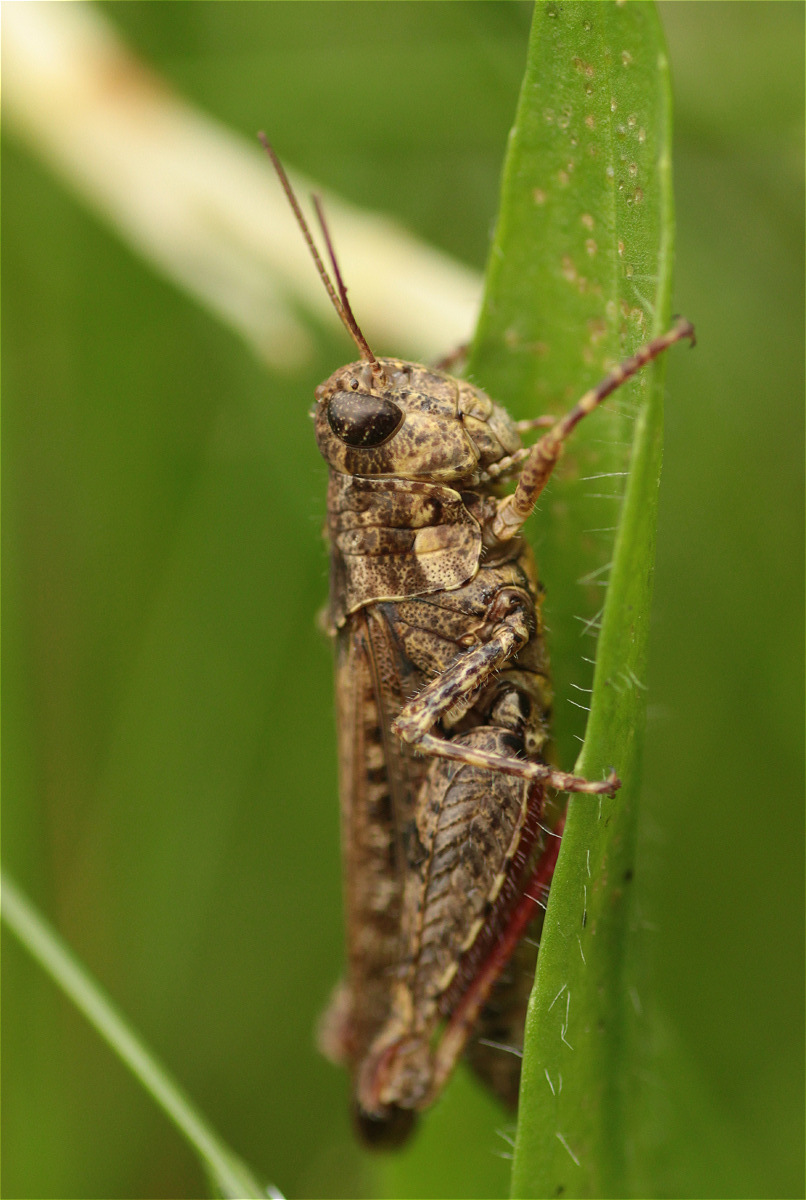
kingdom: Animalia
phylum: Arthropoda
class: Insecta
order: Orthoptera
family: Acrididae
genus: Baeacris
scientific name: Baeacris punctulata
